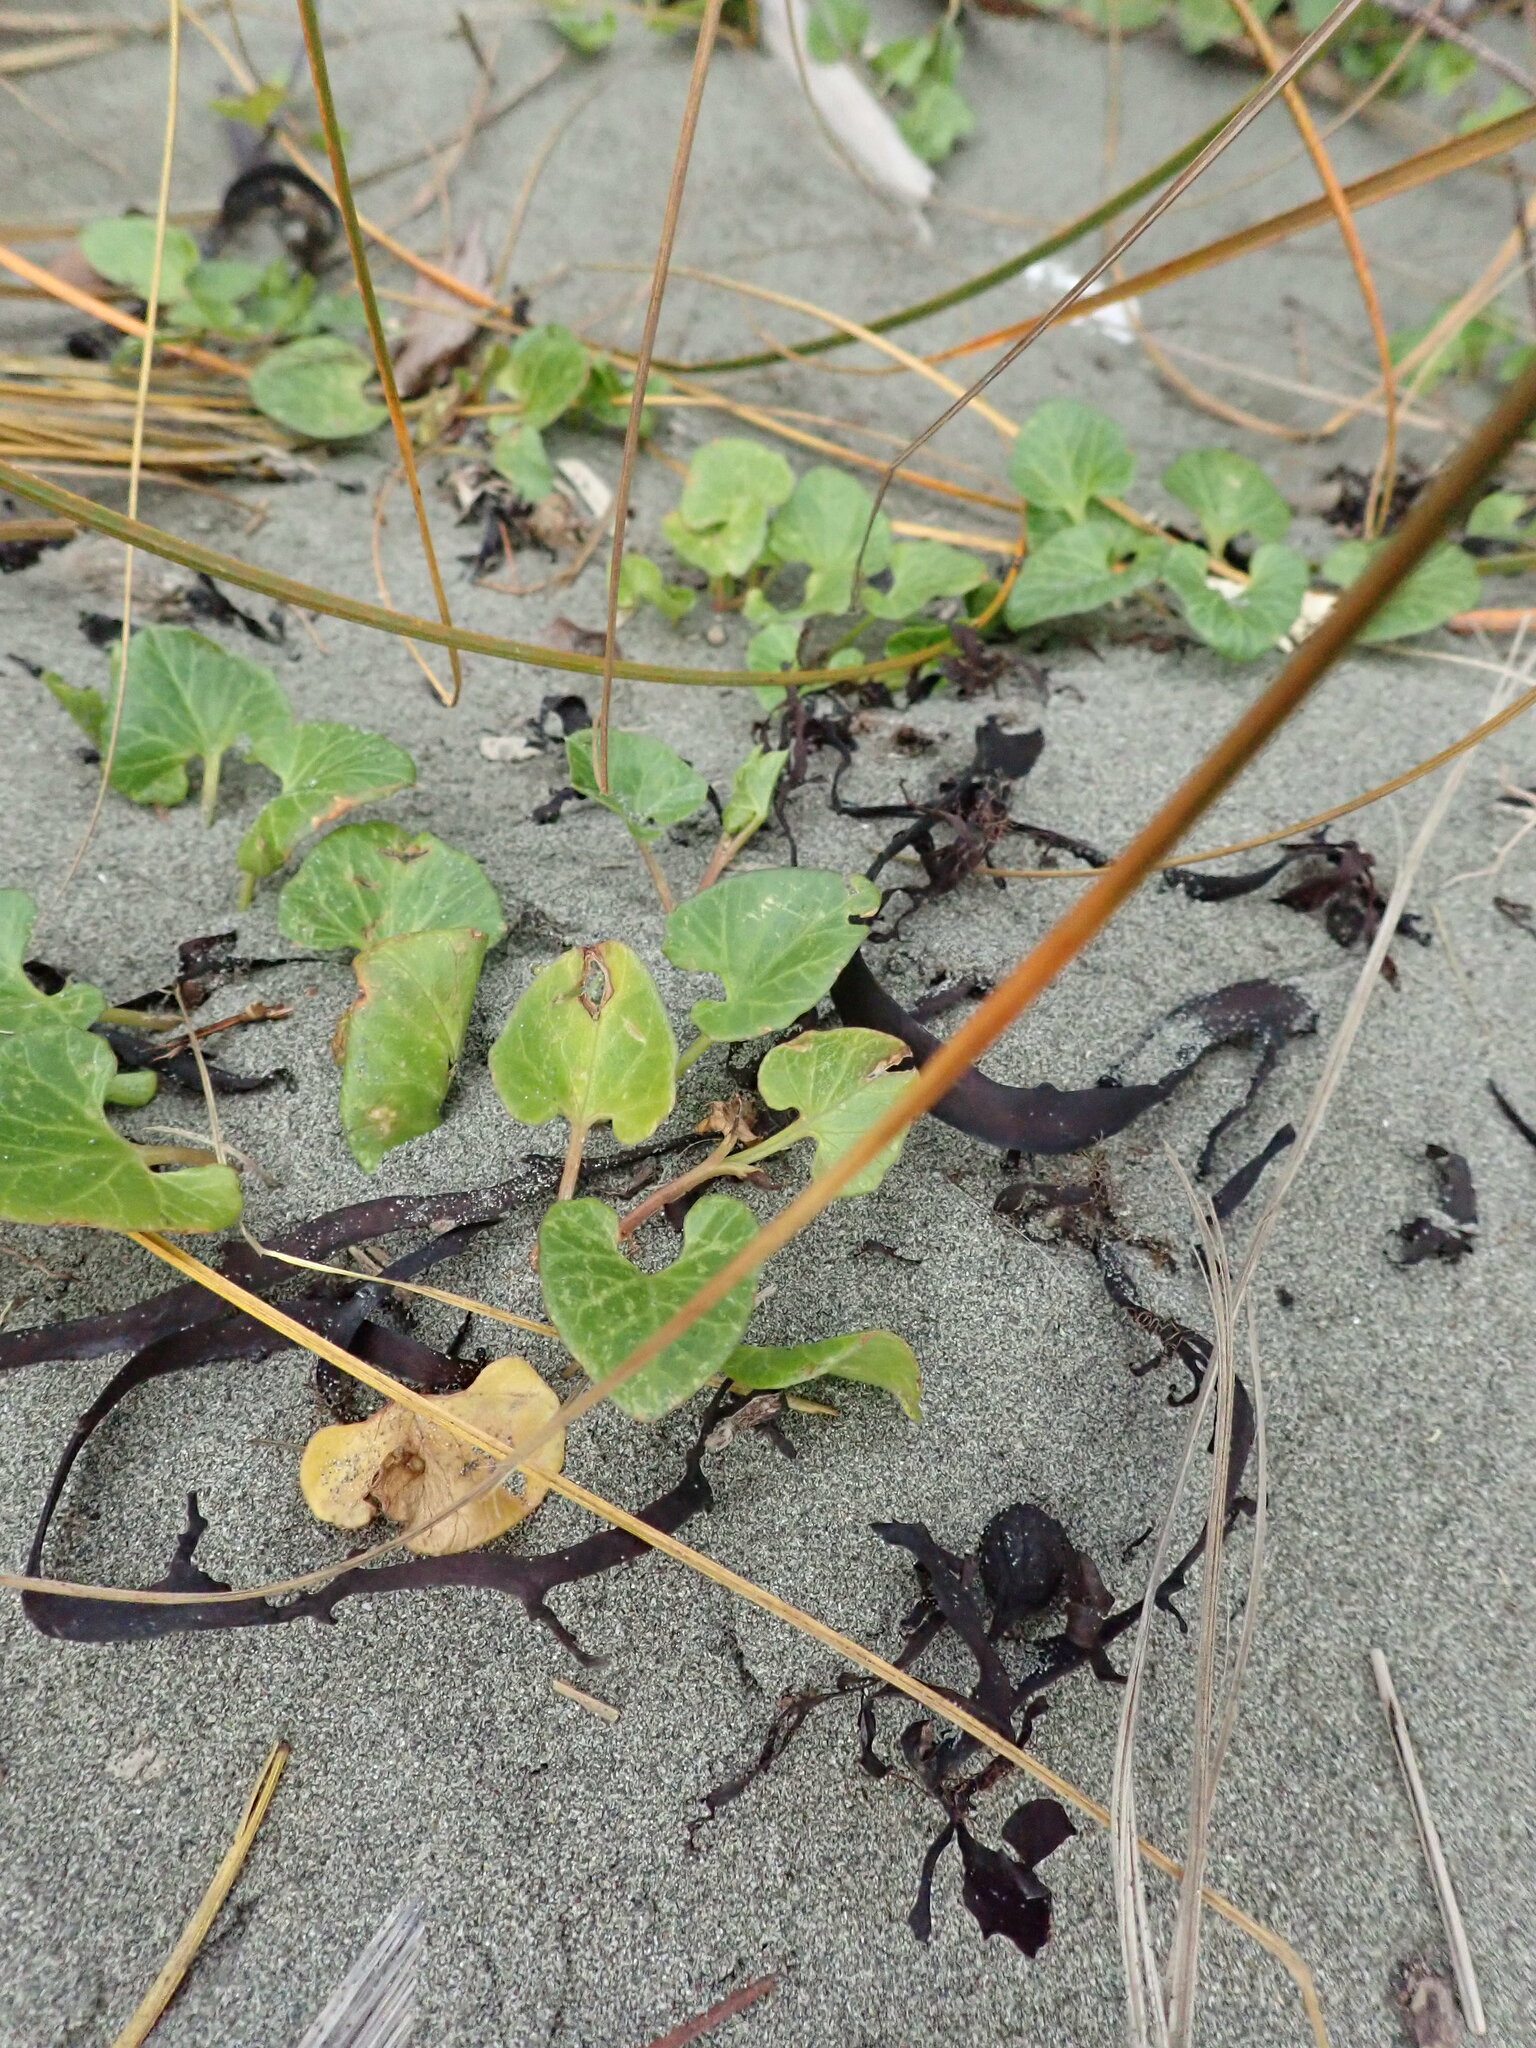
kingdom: Plantae
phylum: Tracheophyta
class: Magnoliopsida
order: Solanales
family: Convolvulaceae
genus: Calystegia
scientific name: Calystegia soldanella
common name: Sea bindweed
